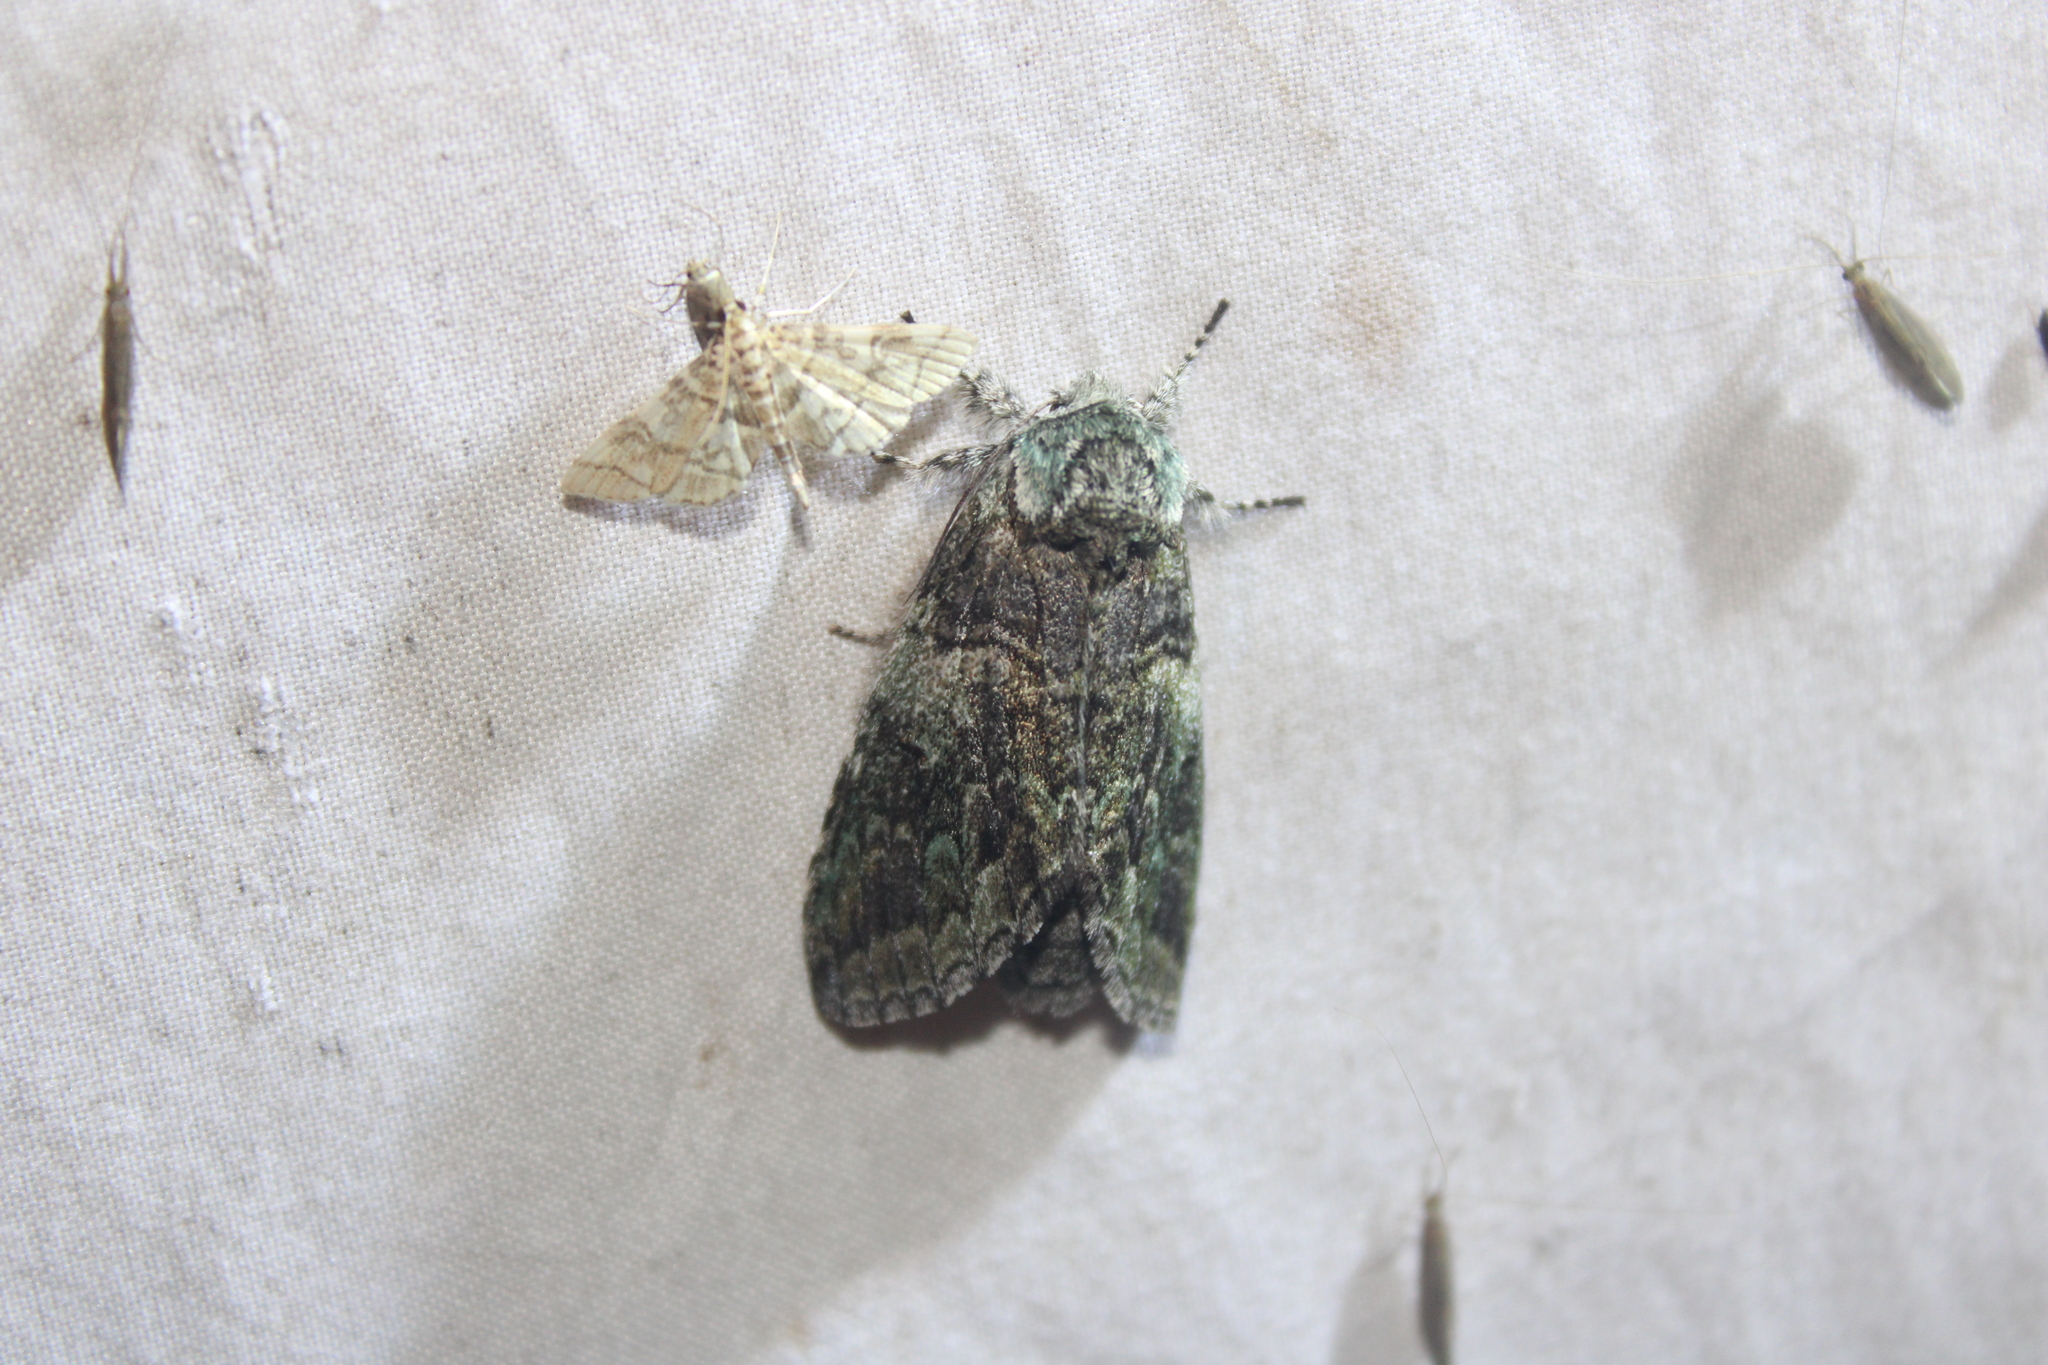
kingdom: Animalia
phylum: Arthropoda
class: Insecta
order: Lepidoptera
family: Notodontidae
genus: Macrurocampa
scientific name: Macrurocampa marthesia
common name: Mottled prominent
